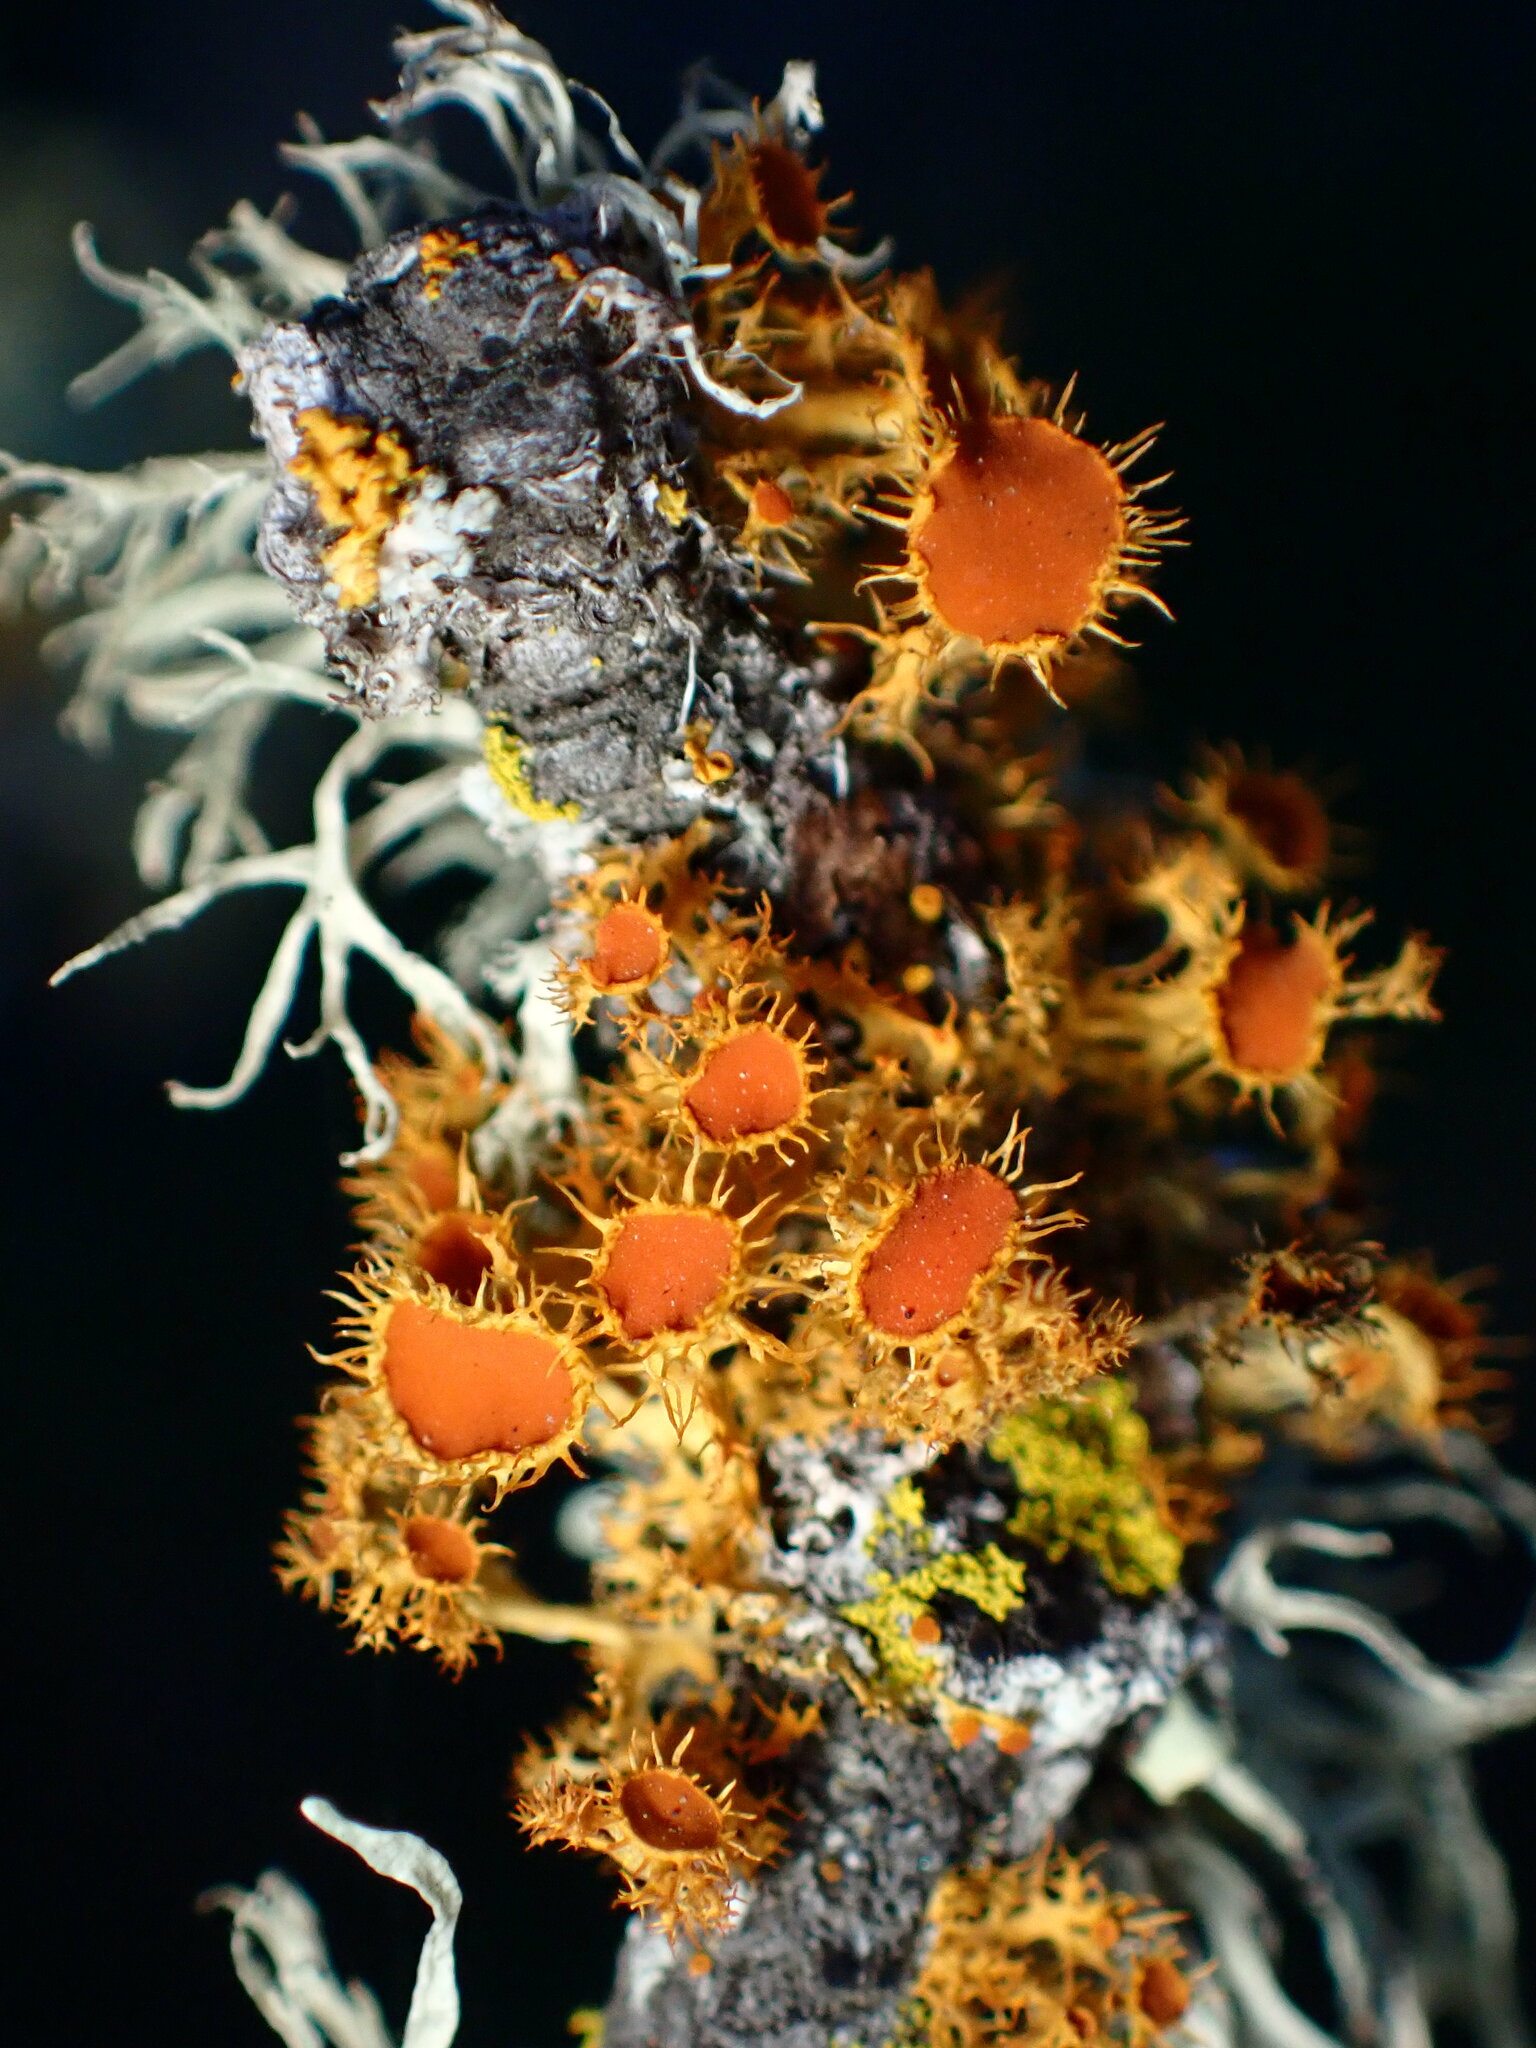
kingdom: Fungi
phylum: Ascomycota
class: Lecanoromycetes
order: Teloschistales
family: Teloschistaceae
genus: Niorma
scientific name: Niorma chrysophthalma
